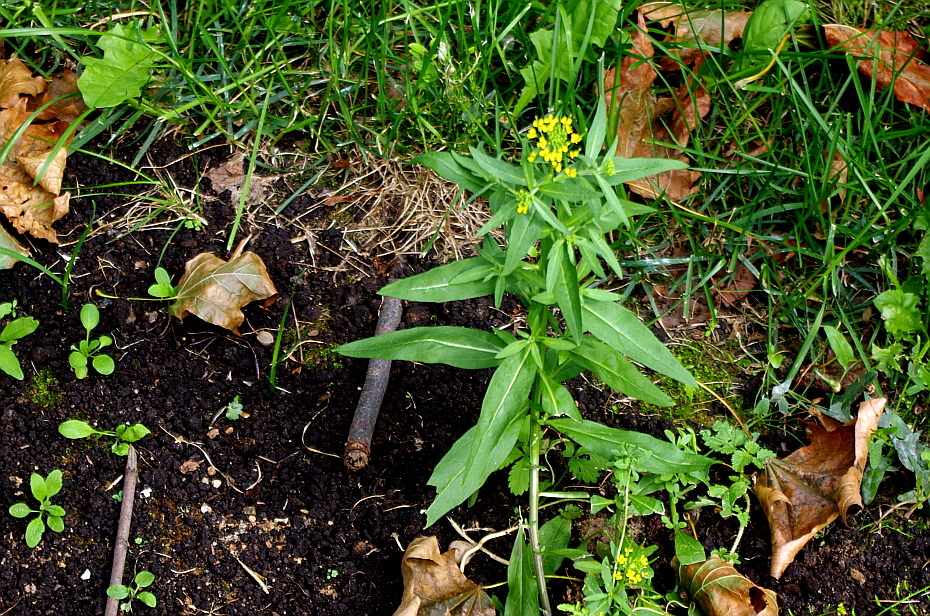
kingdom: Plantae
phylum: Tracheophyta
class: Magnoliopsida
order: Brassicales
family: Brassicaceae
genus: Erysimum
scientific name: Erysimum cheiranthoides
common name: Treacle mustard
